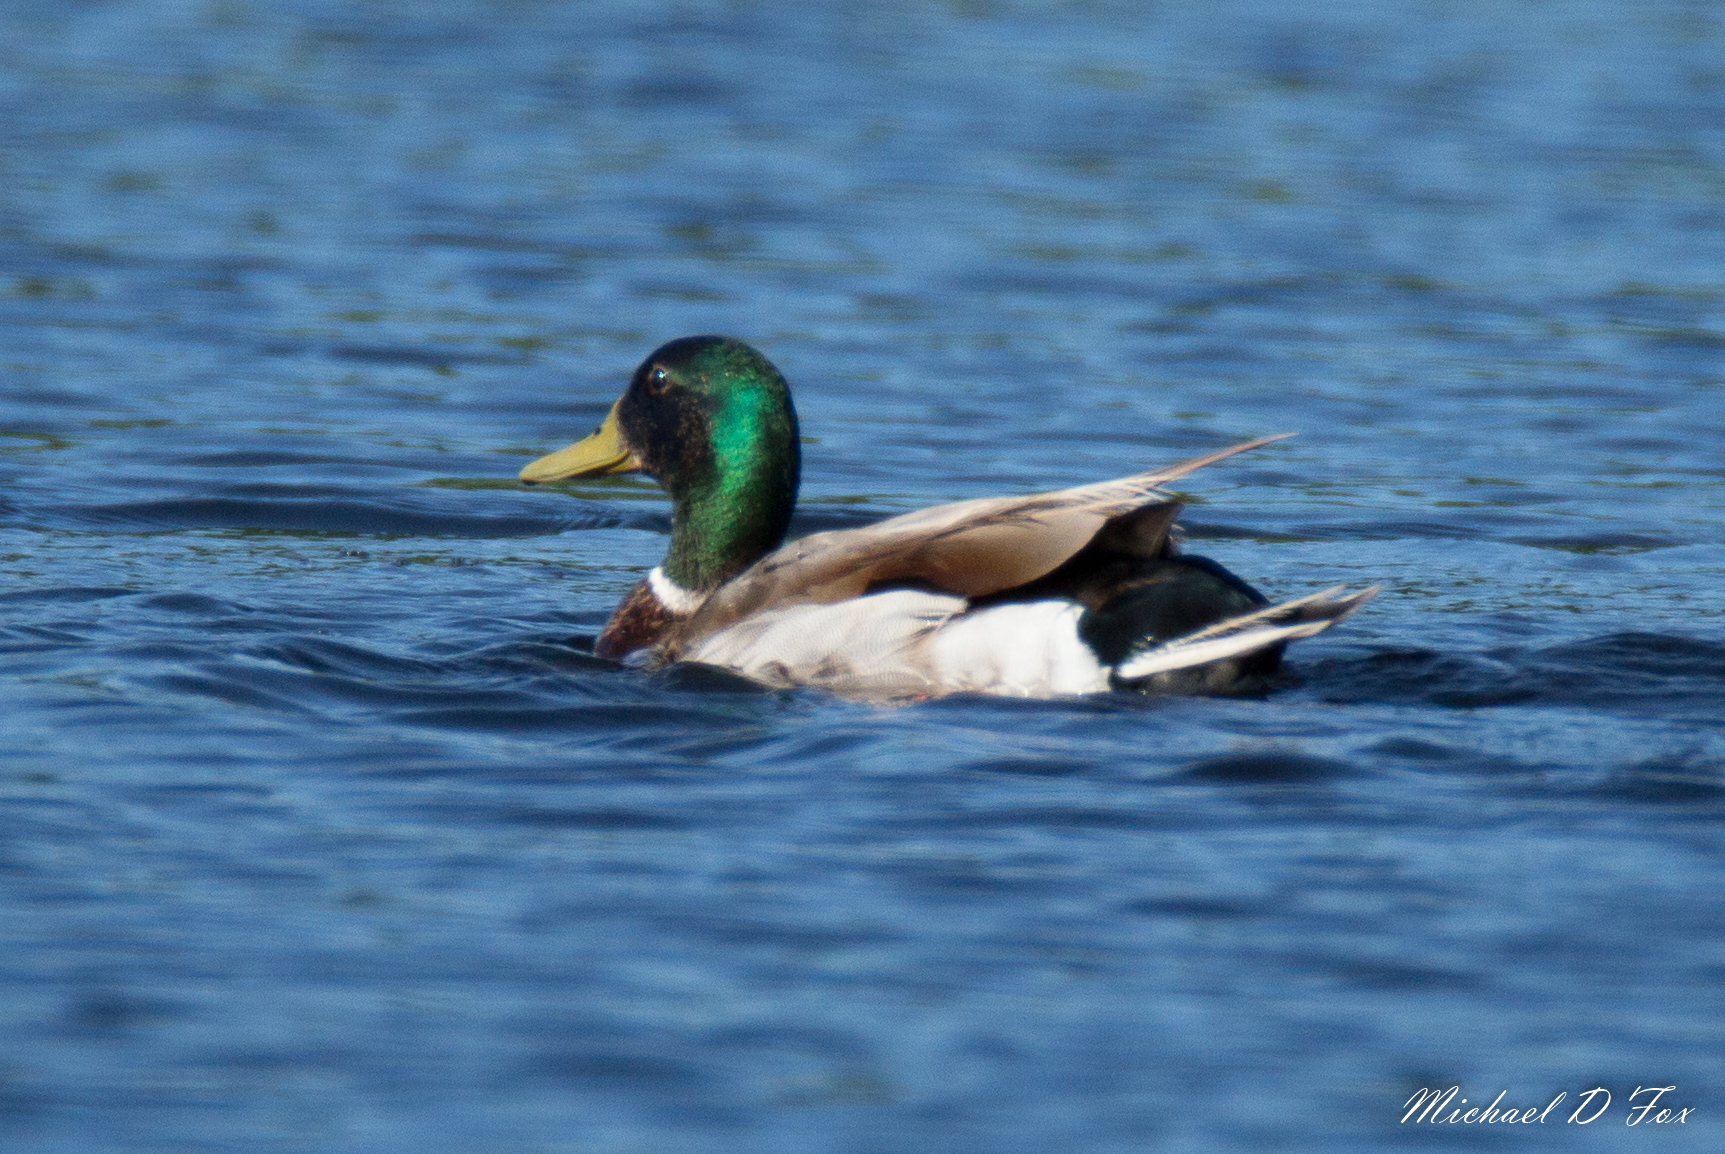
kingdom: Animalia
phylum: Chordata
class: Aves
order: Anseriformes
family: Anatidae
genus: Anas
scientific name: Anas platyrhynchos
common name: Mallard
